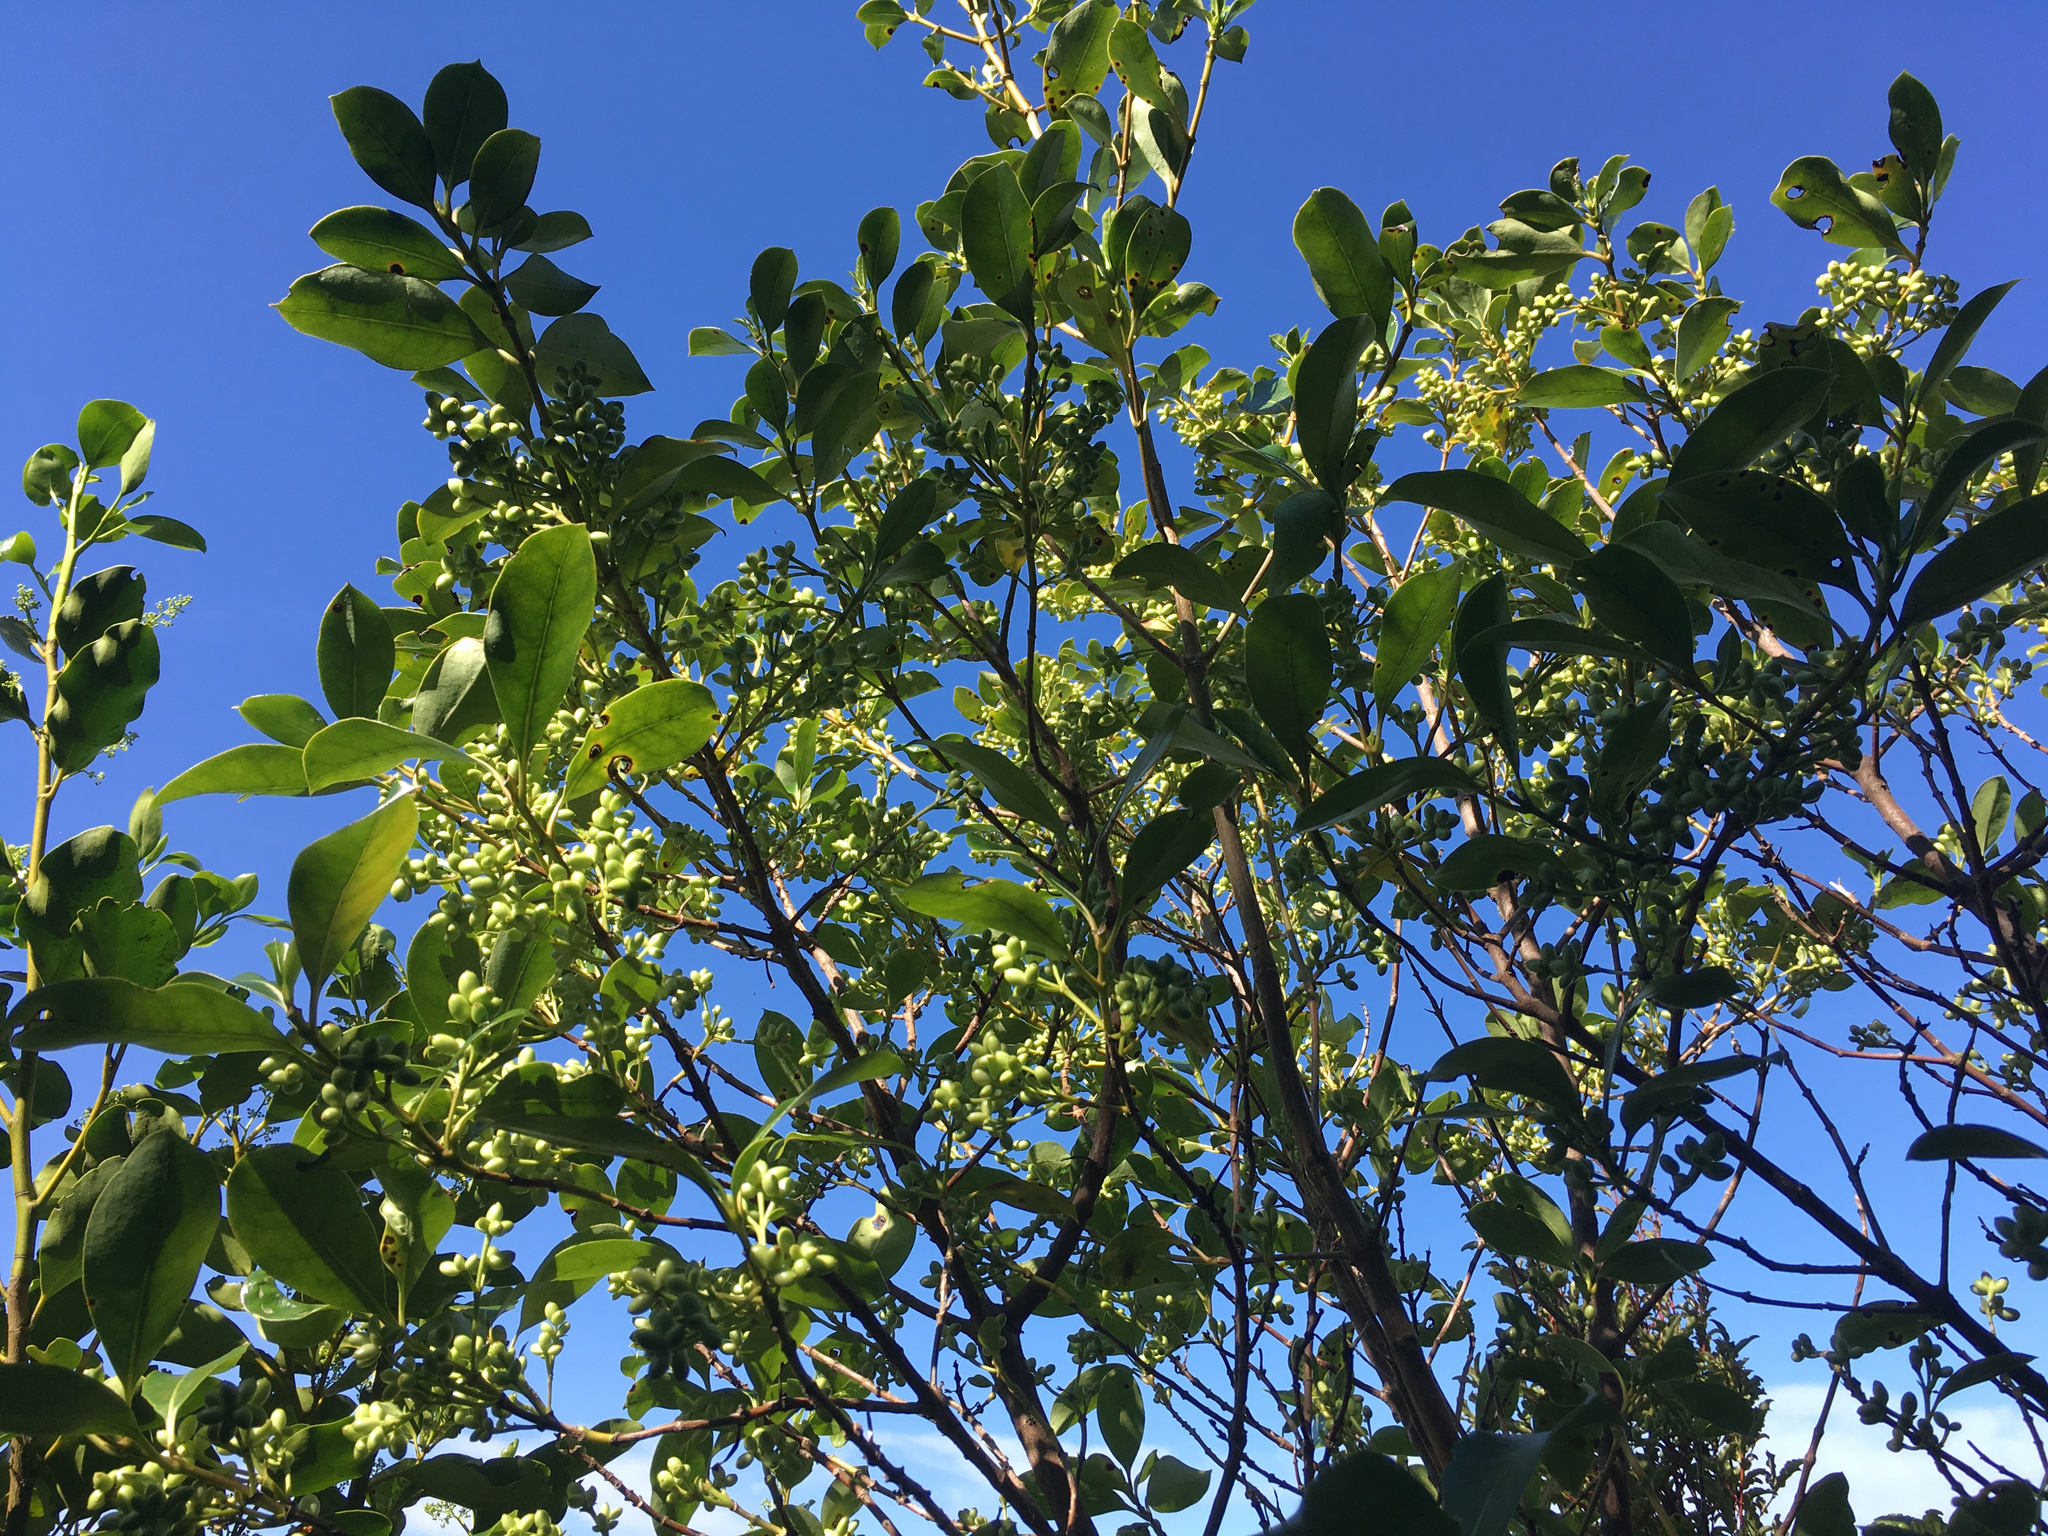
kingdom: Plantae
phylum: Tracheophyta
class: Magnoliopsida
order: Gentianales
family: Rubiaceae
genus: Coprosma
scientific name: Coprosma lucida
